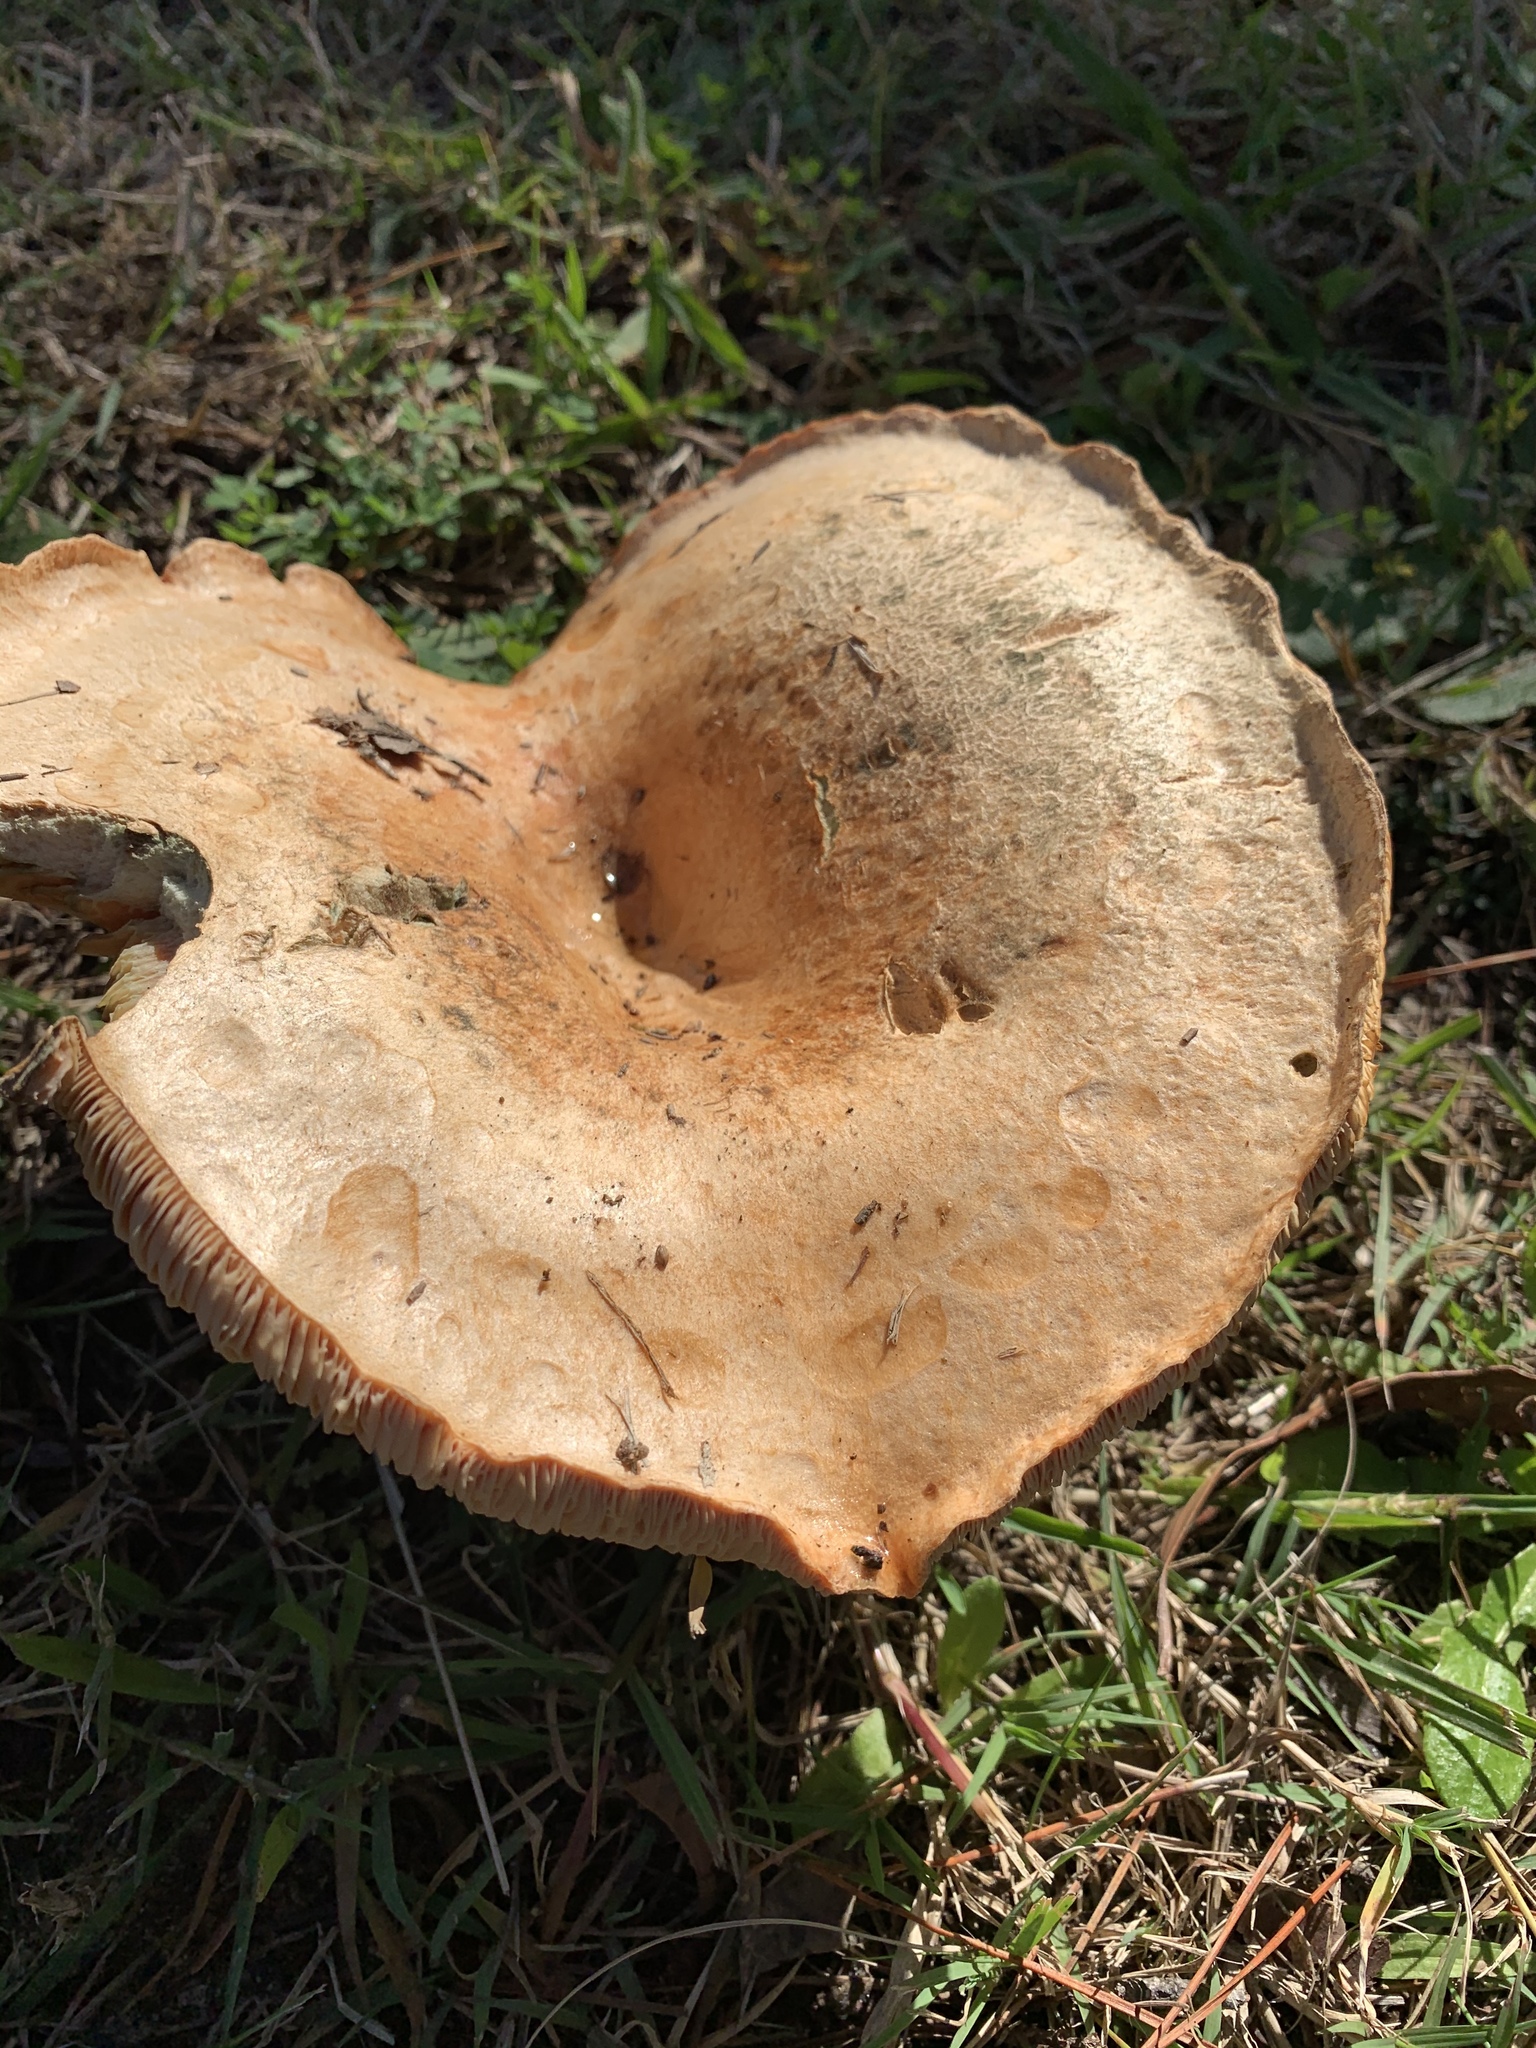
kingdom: Fungi
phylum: Basidiomycota
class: Agaricomycetes
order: Russulales
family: Russulaceae
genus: Lactarius
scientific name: Lactarius deliciosus
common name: Saffron milk-cap
